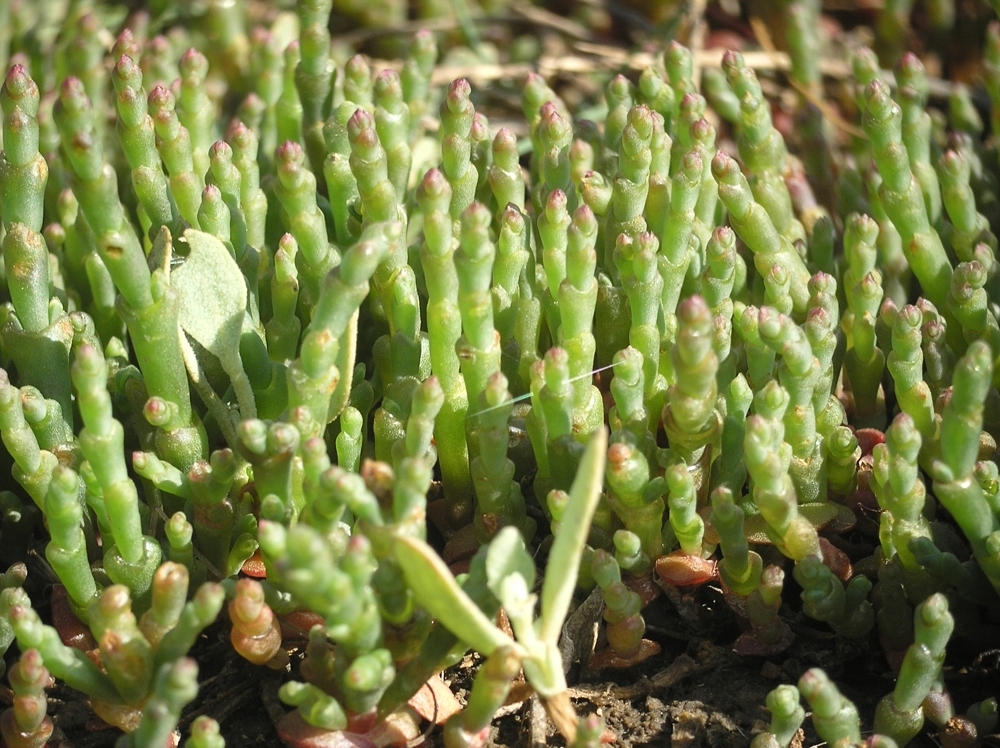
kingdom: Plantae
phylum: Tracheophyta
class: Magnoliopsida
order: Caryophyllales
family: Amaranthaceae
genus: Salicornia
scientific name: Salicornia perennans
